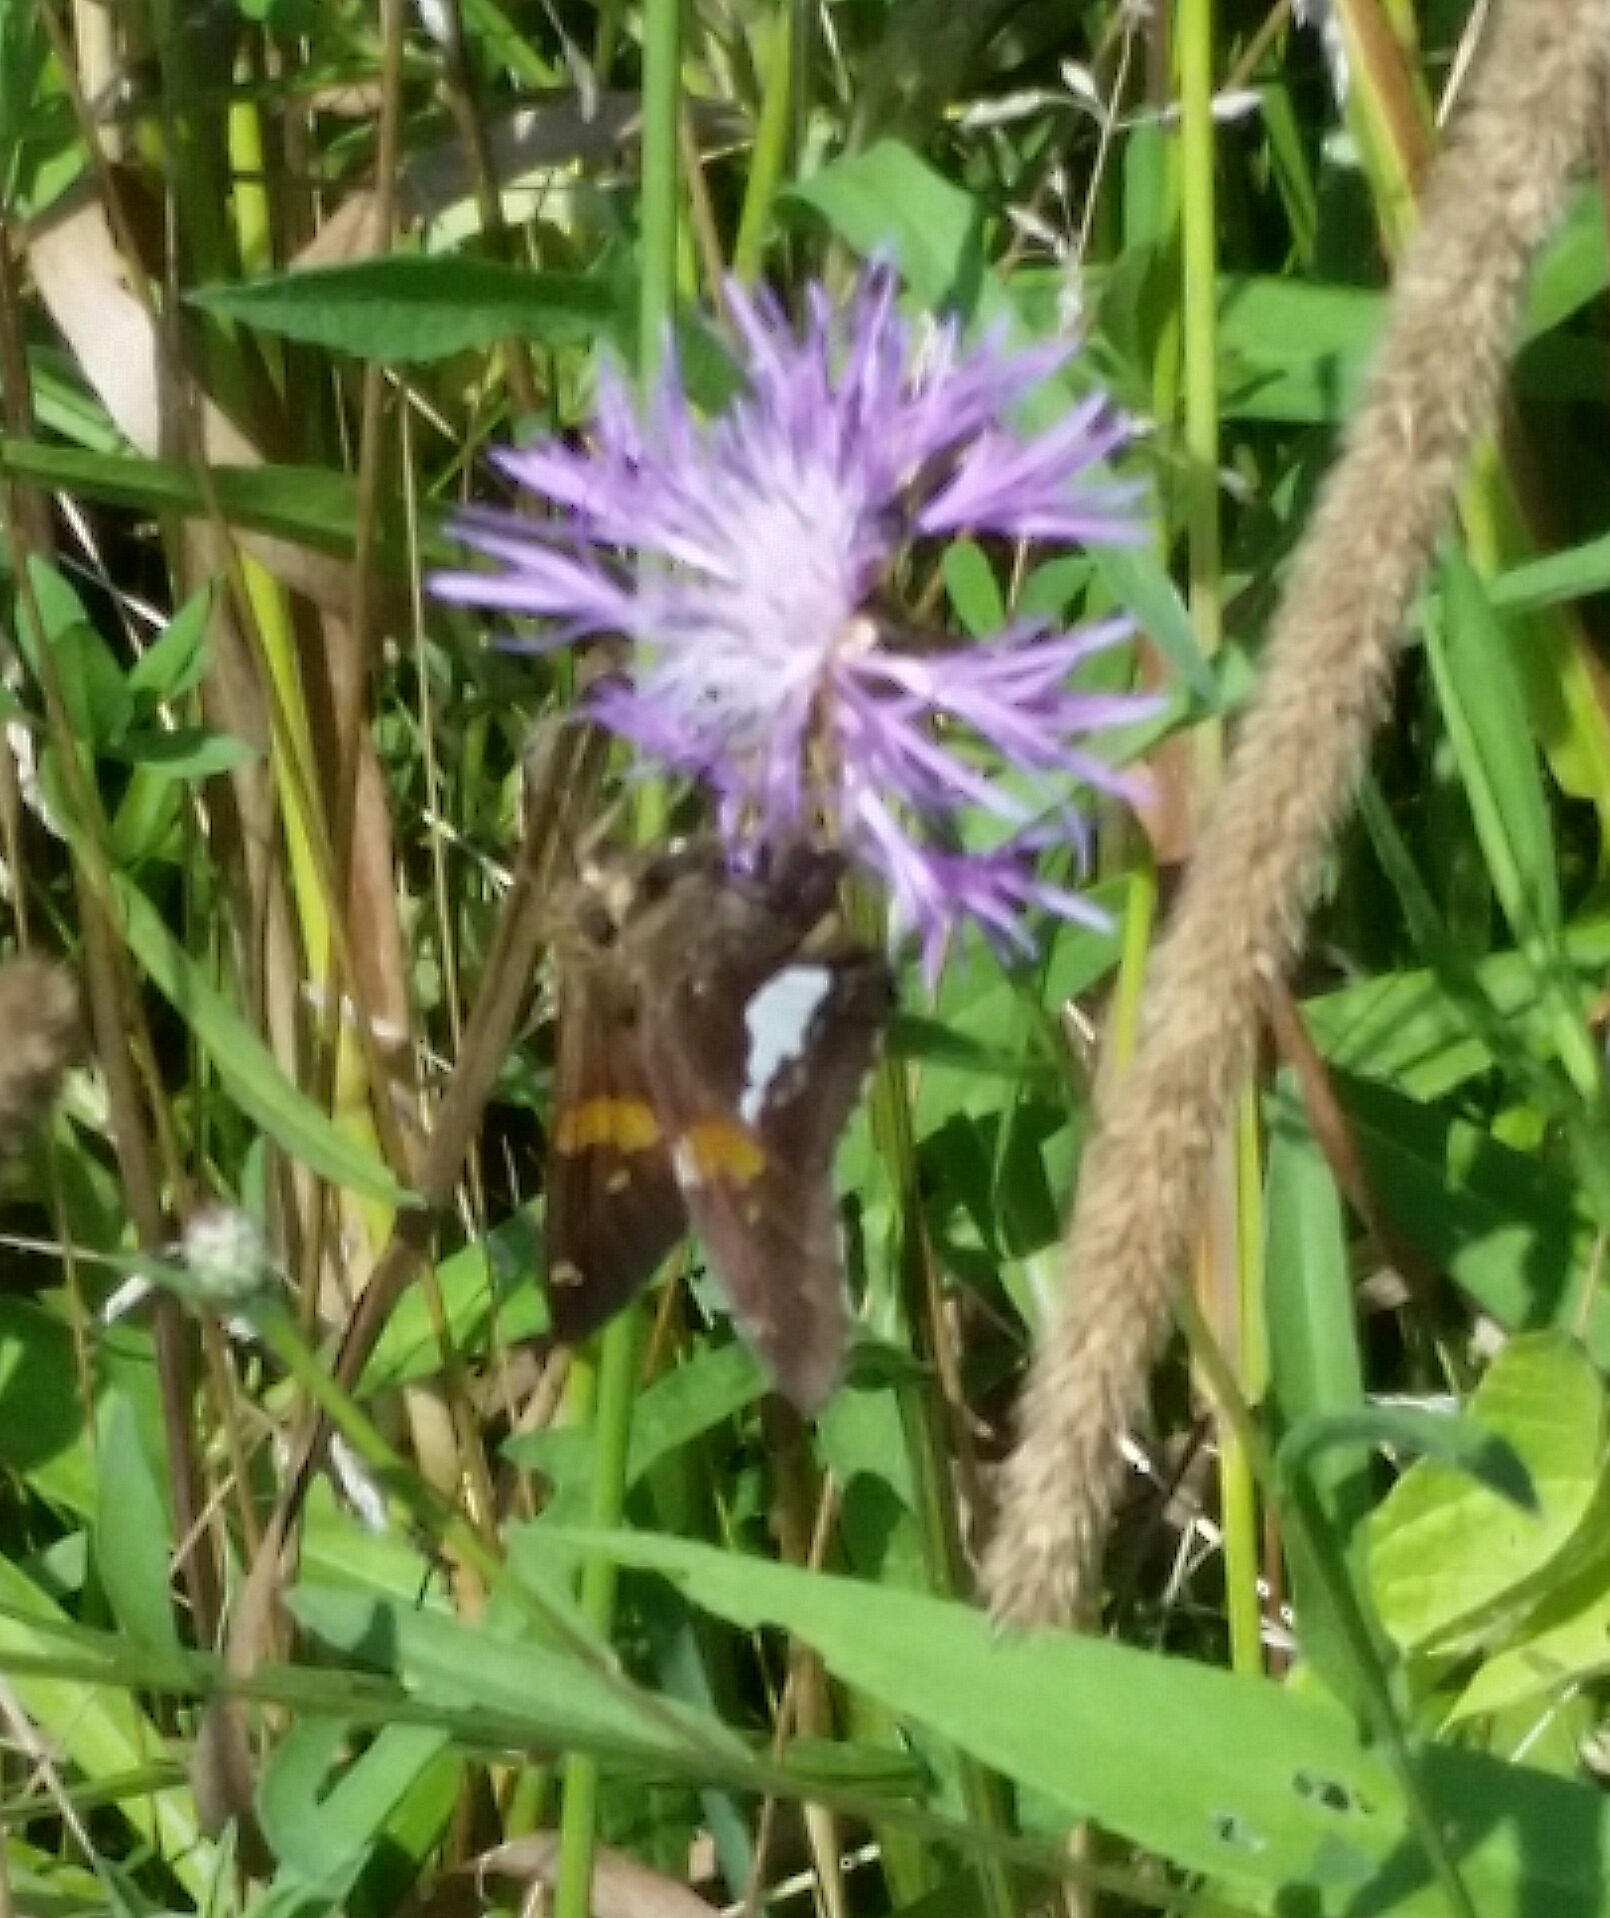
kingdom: Animalia
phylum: Arthropoda
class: Insecta
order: Lepidoptera
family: Hesperiidae
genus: Epargyreus
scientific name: Epargyreus clarus
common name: Silver-spotted skipper
